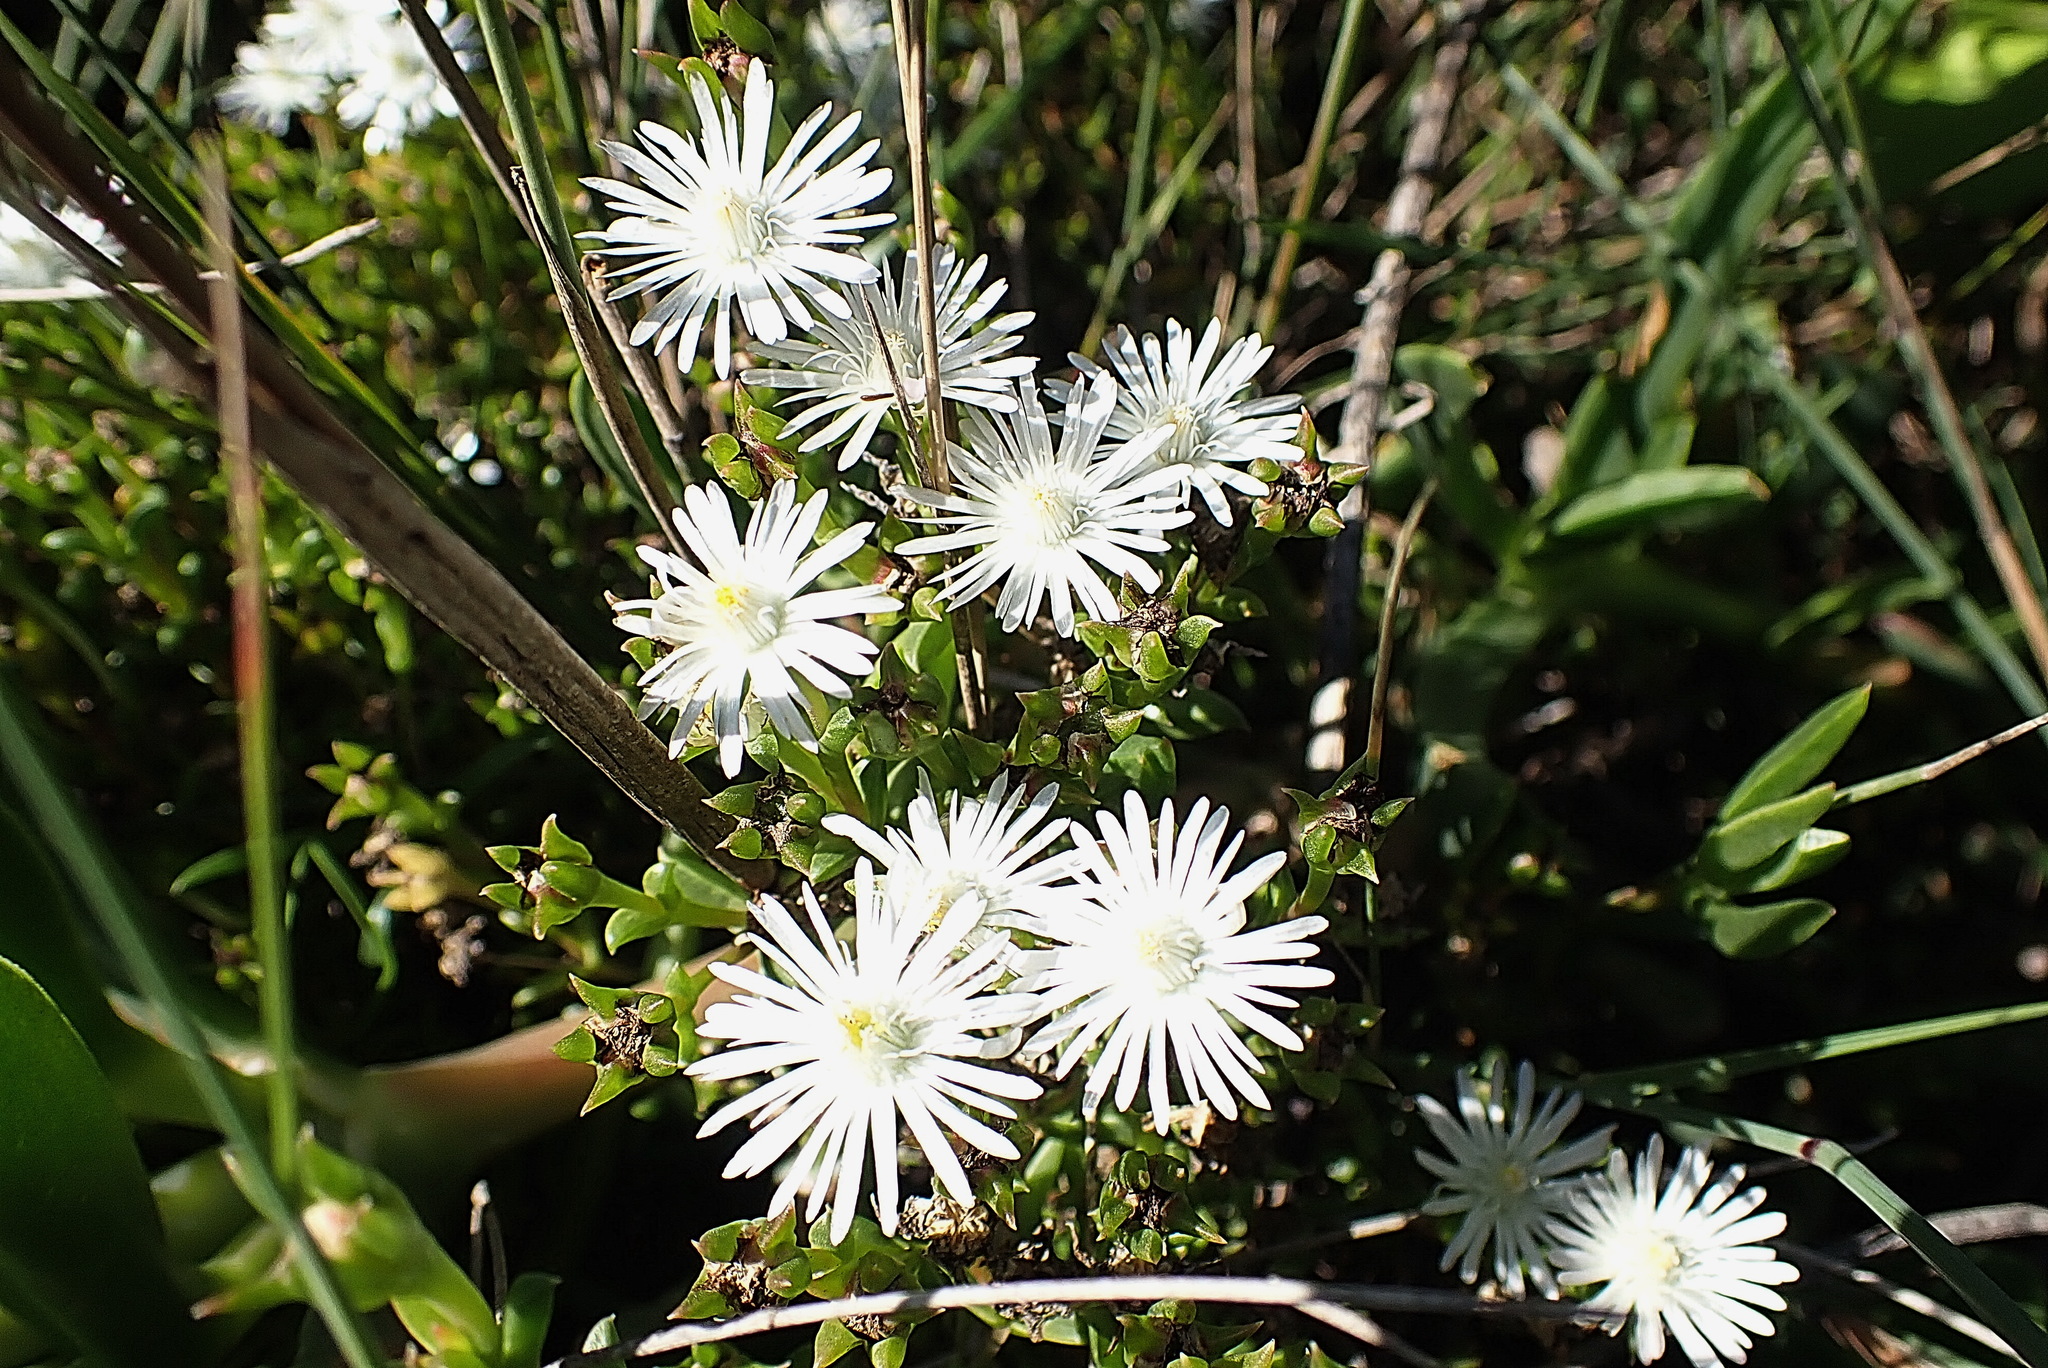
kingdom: Plantae
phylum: Tracheophyta
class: Magnoliopsida
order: Caryophyllales
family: Aizoaceae
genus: Delosperma
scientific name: Delosperma inconspicuum
